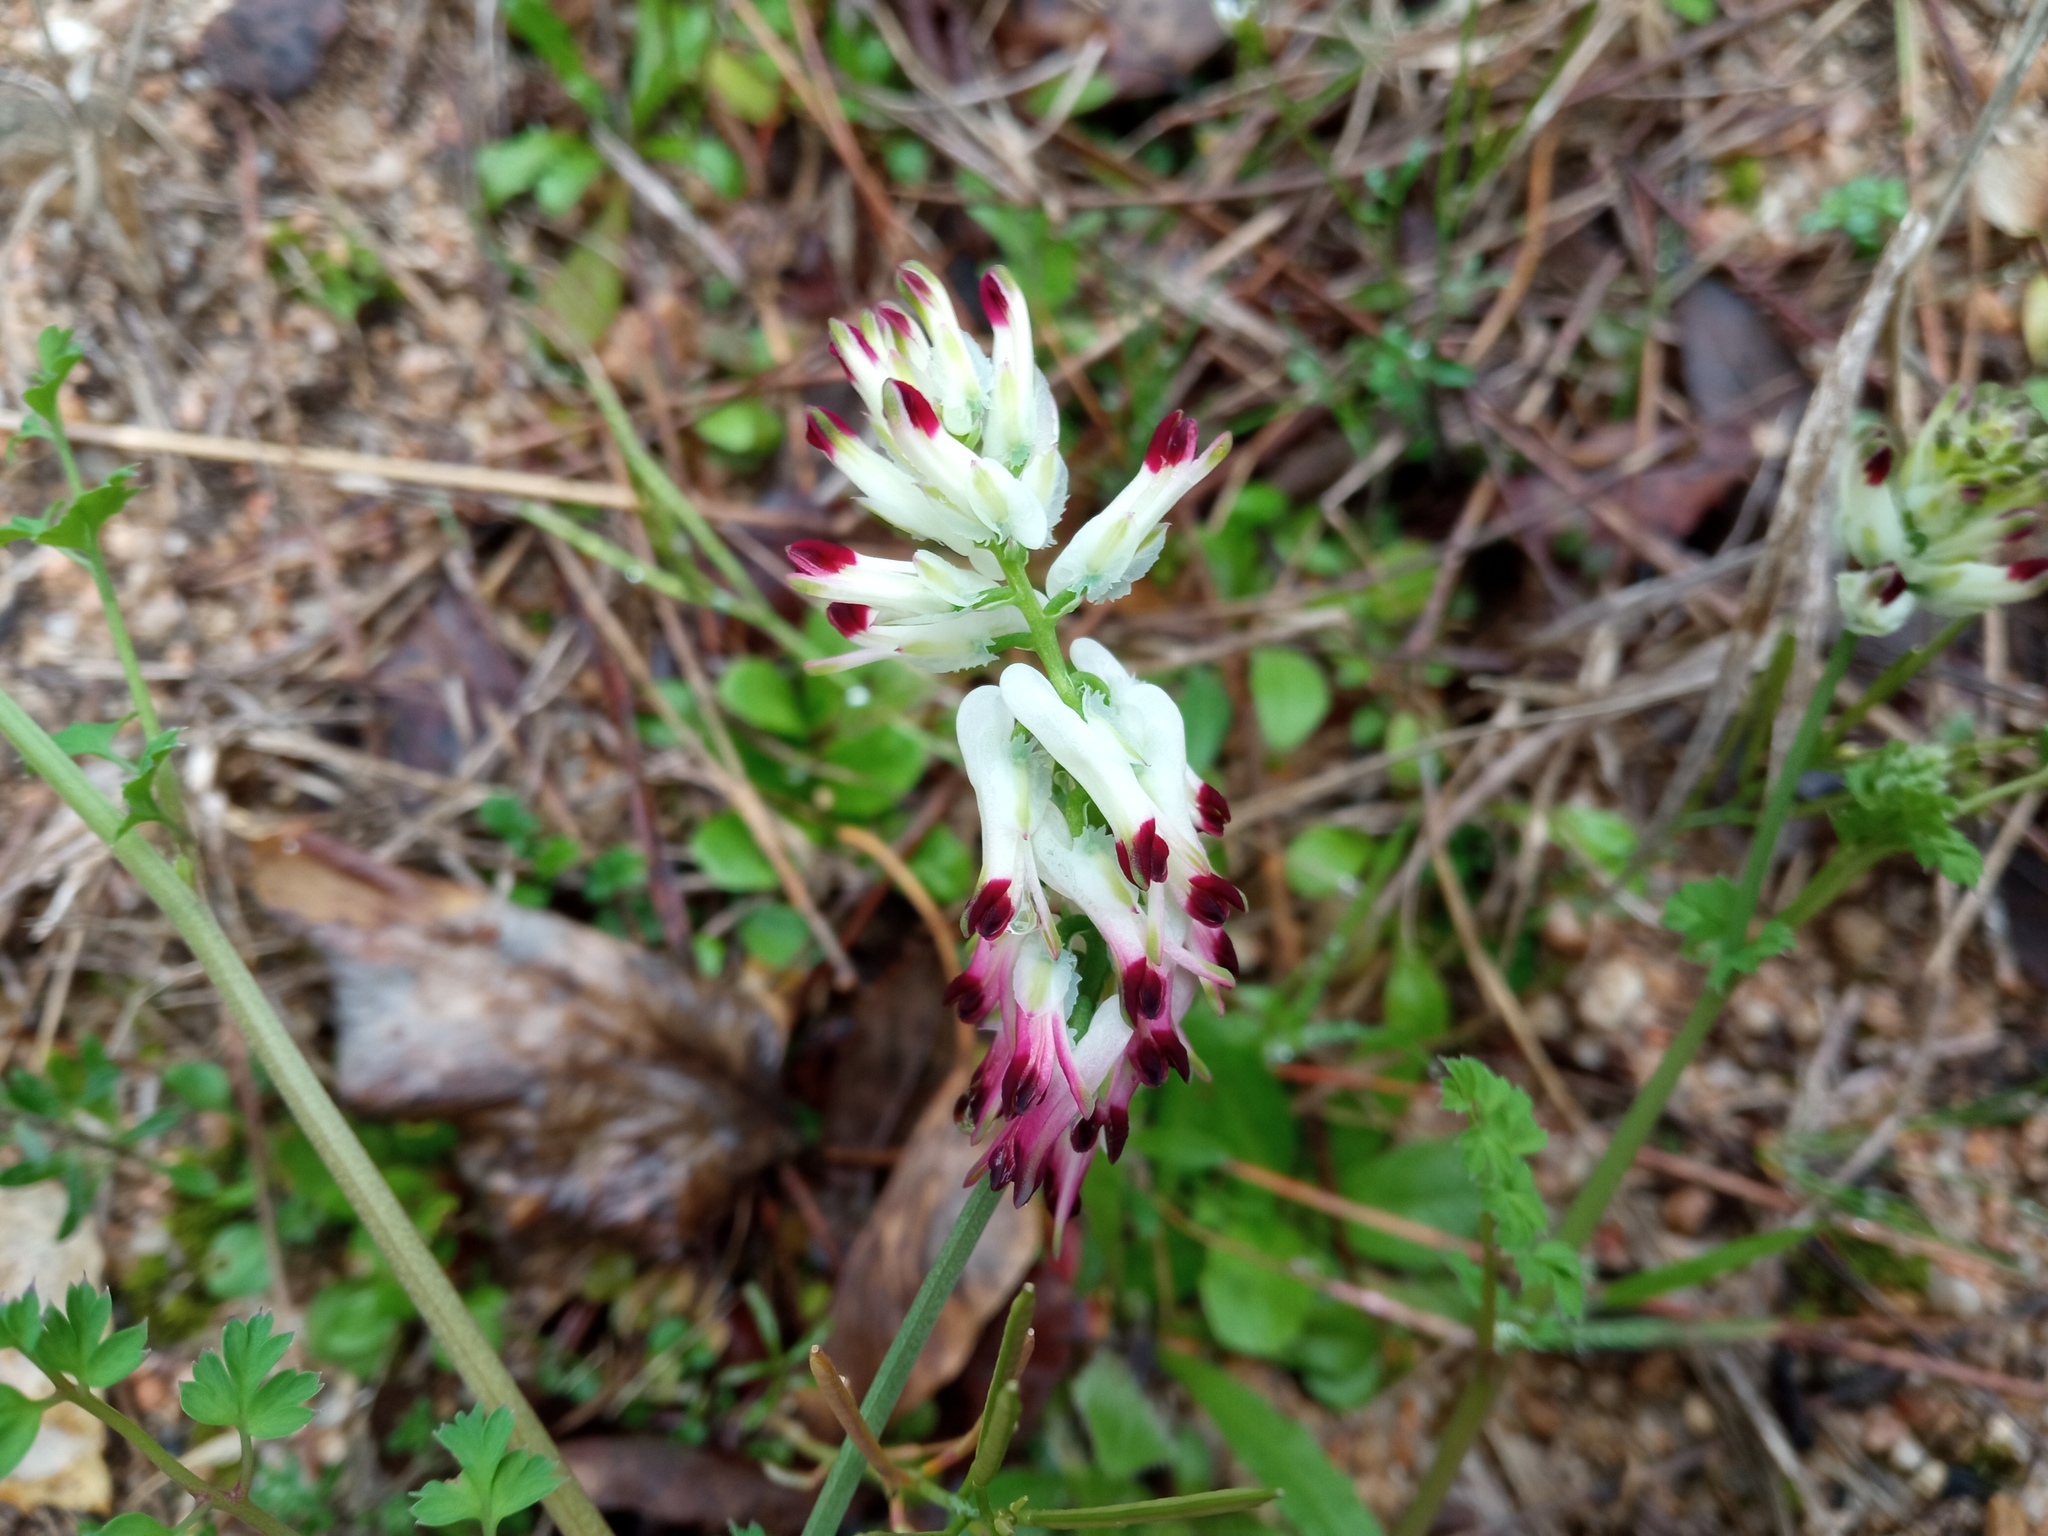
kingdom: Plantae
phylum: Tracheophyta
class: Magnoliopsida
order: Ranunculales
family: Papaveraceae
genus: Fumaria
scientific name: Fumaria capreolata
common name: White ramping-fumitory
